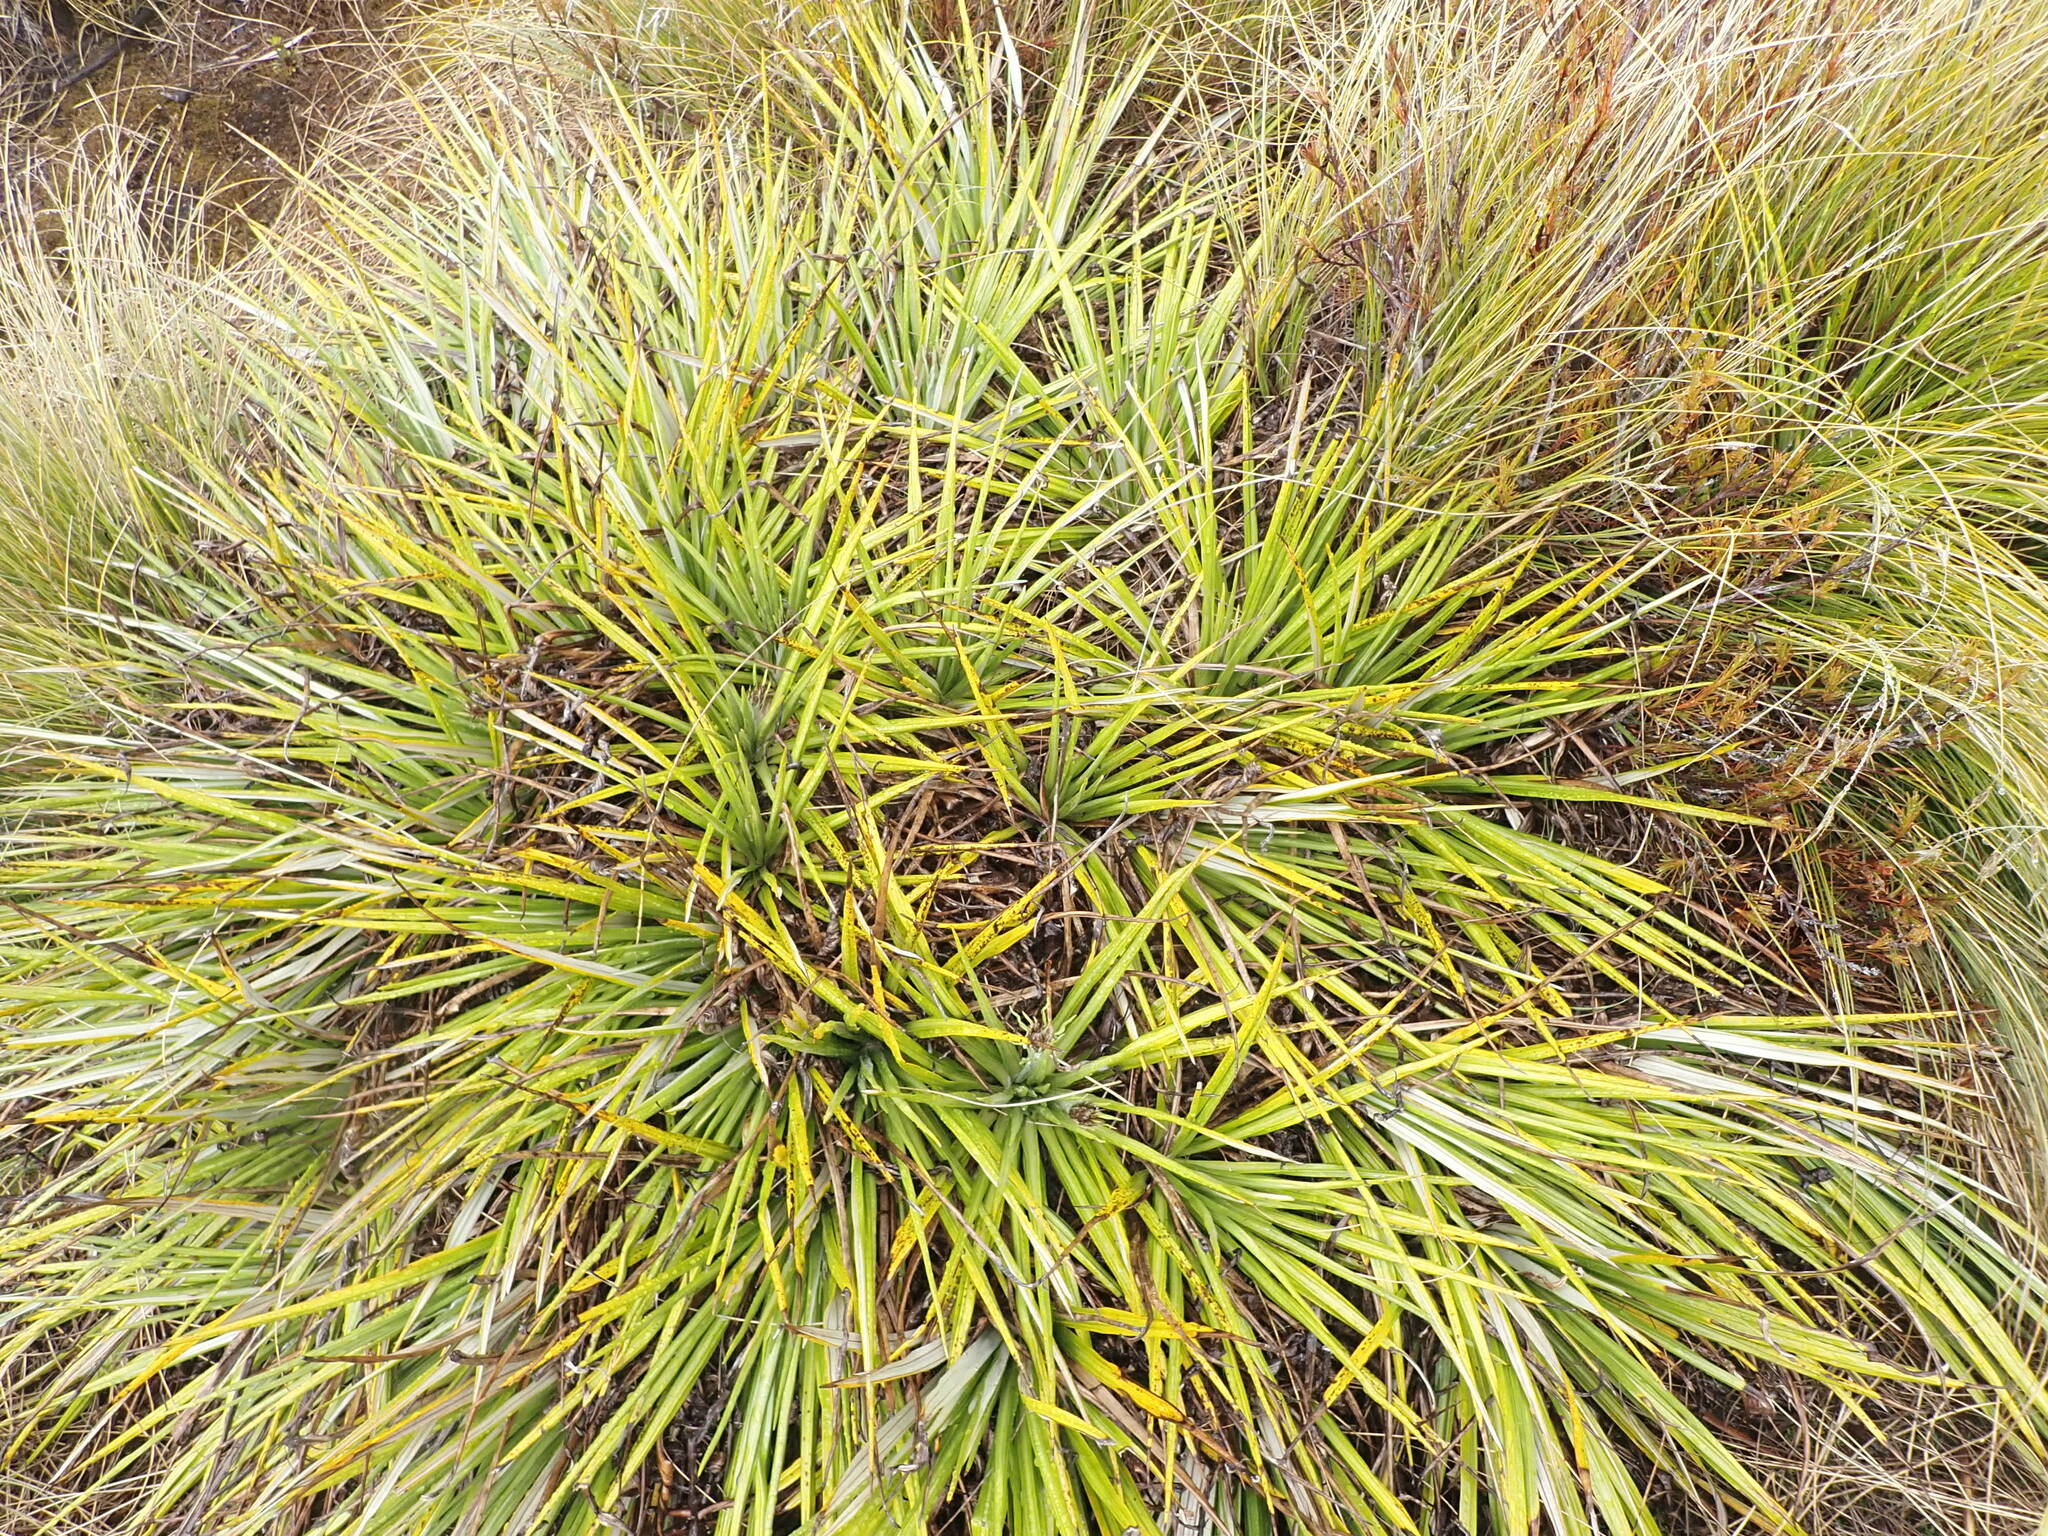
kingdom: Plantae
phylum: Tracheophyta
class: Magnoliopsida
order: Asterales
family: Asteraceae
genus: Celmisia
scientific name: Celmisia petriei
